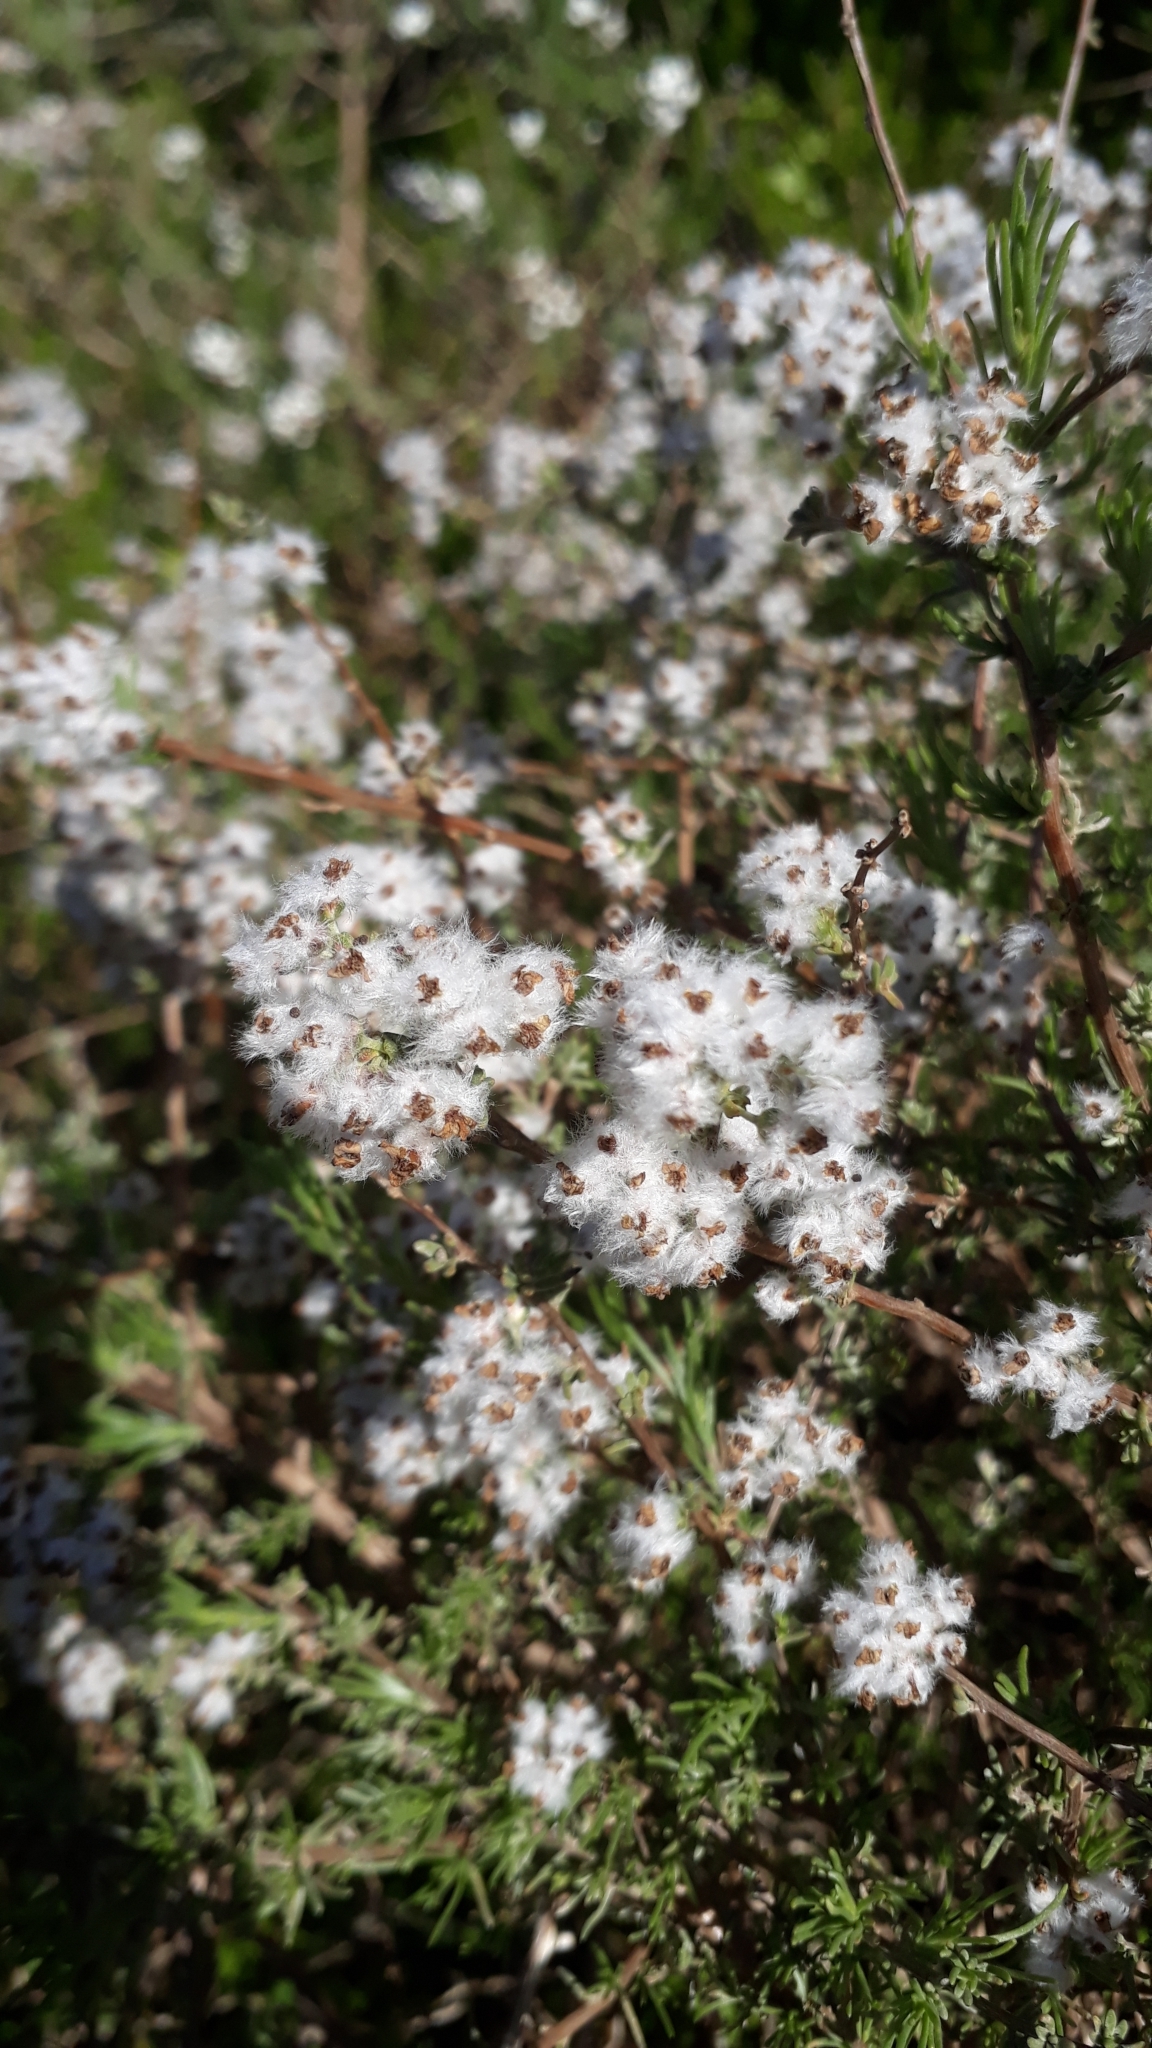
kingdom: Plantae
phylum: Tracheophyta
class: Magnoliopsida
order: Asterales
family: Asteraceae
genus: Eriocephalus
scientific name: Eriocephalus africanus
